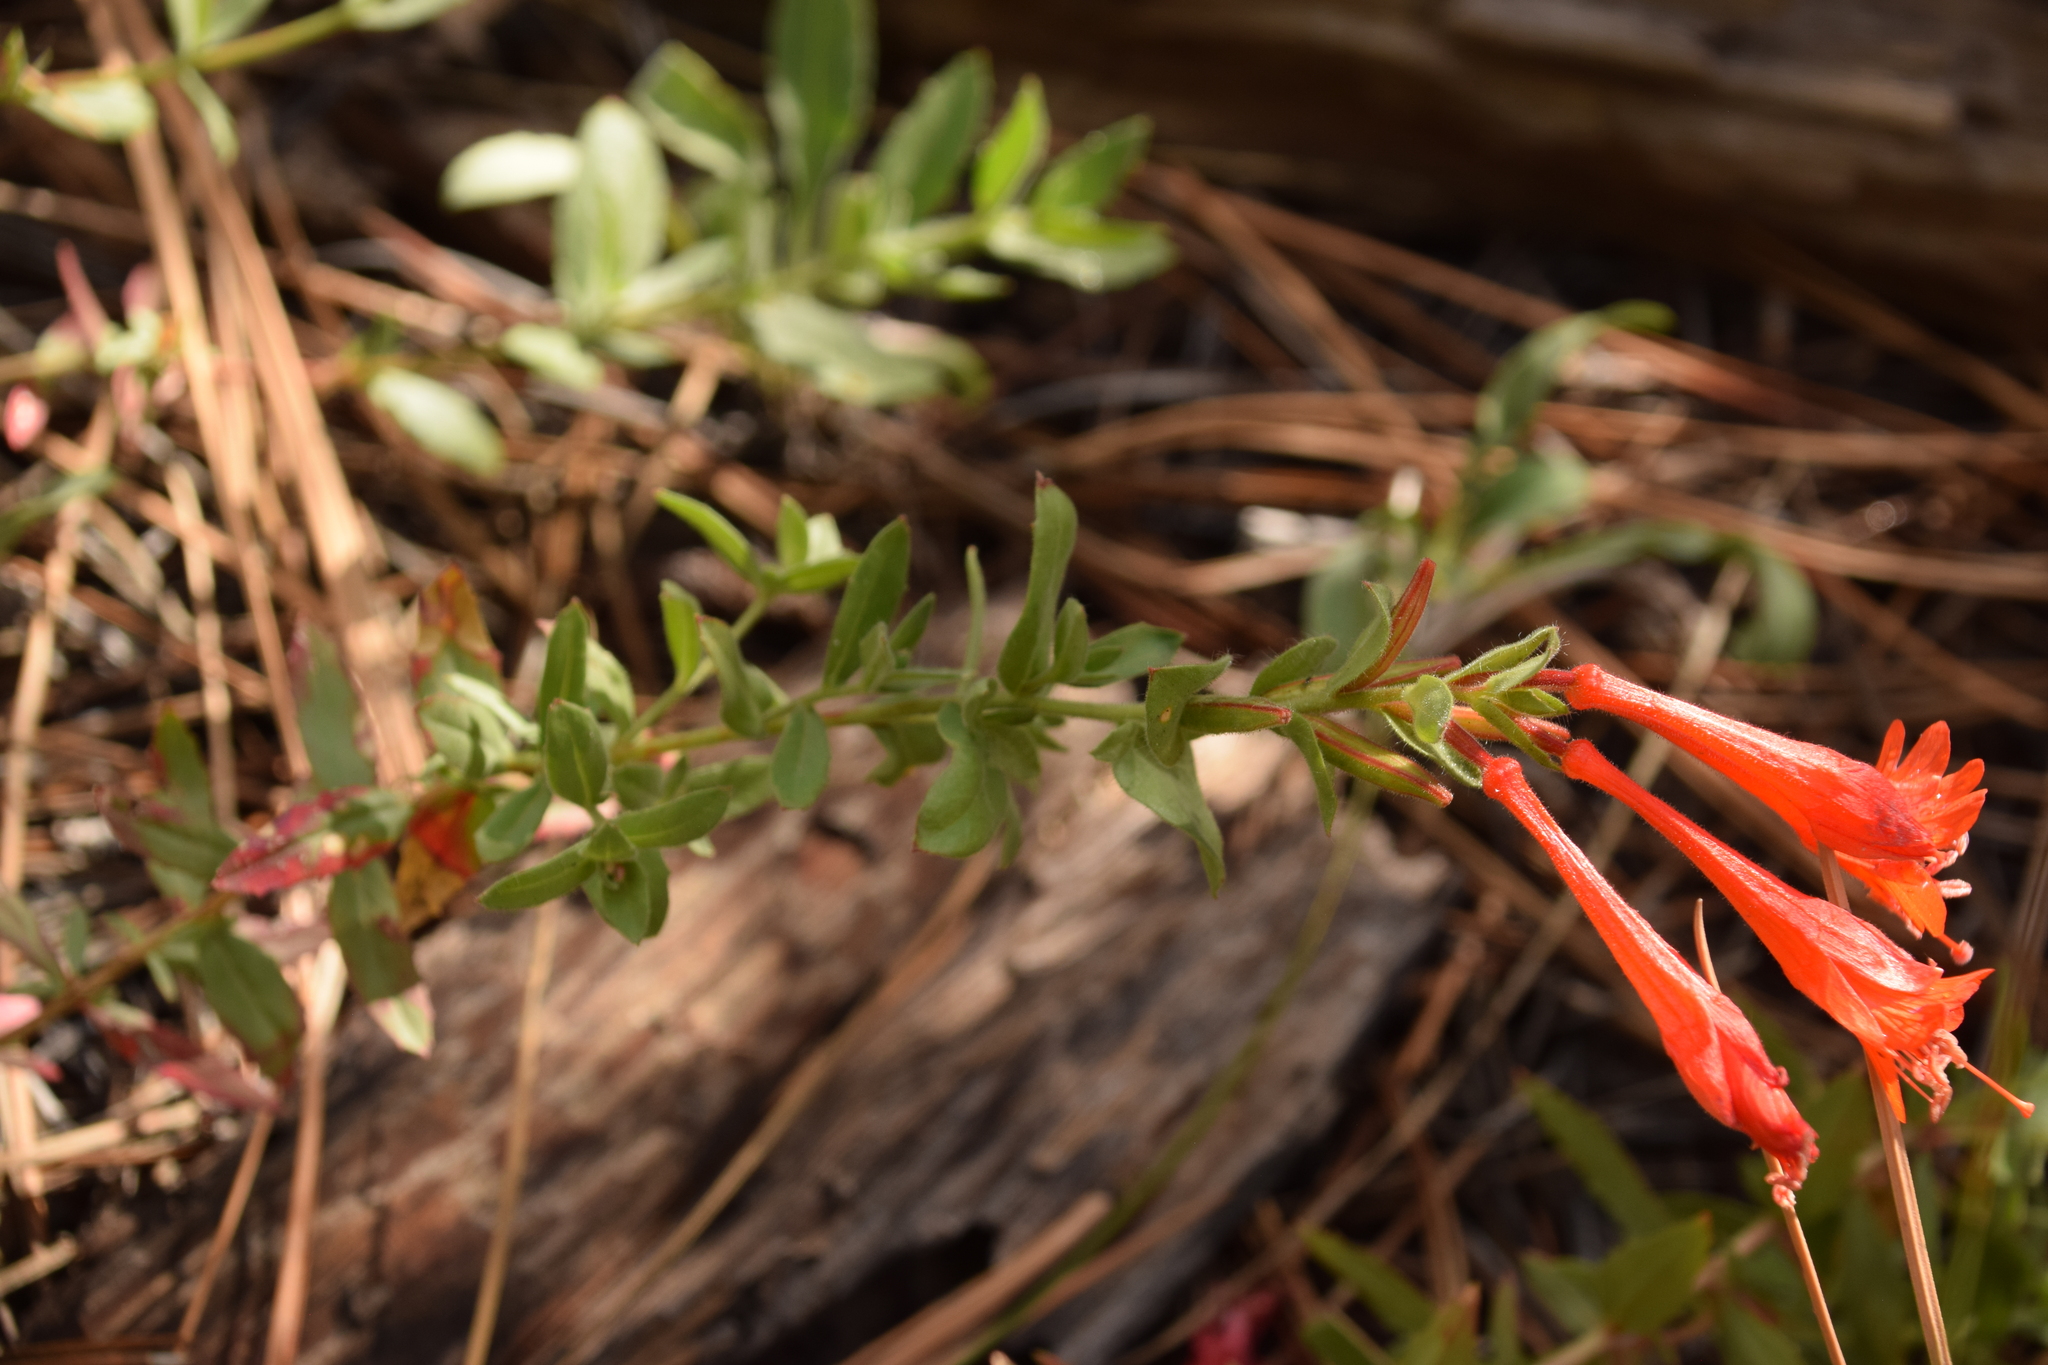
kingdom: Plantae
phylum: Tracheophyta
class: Magnoliopsida
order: Myrtales
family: Onagraceae
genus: Epilobium
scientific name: Epilobium canum
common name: California-fuchsia
